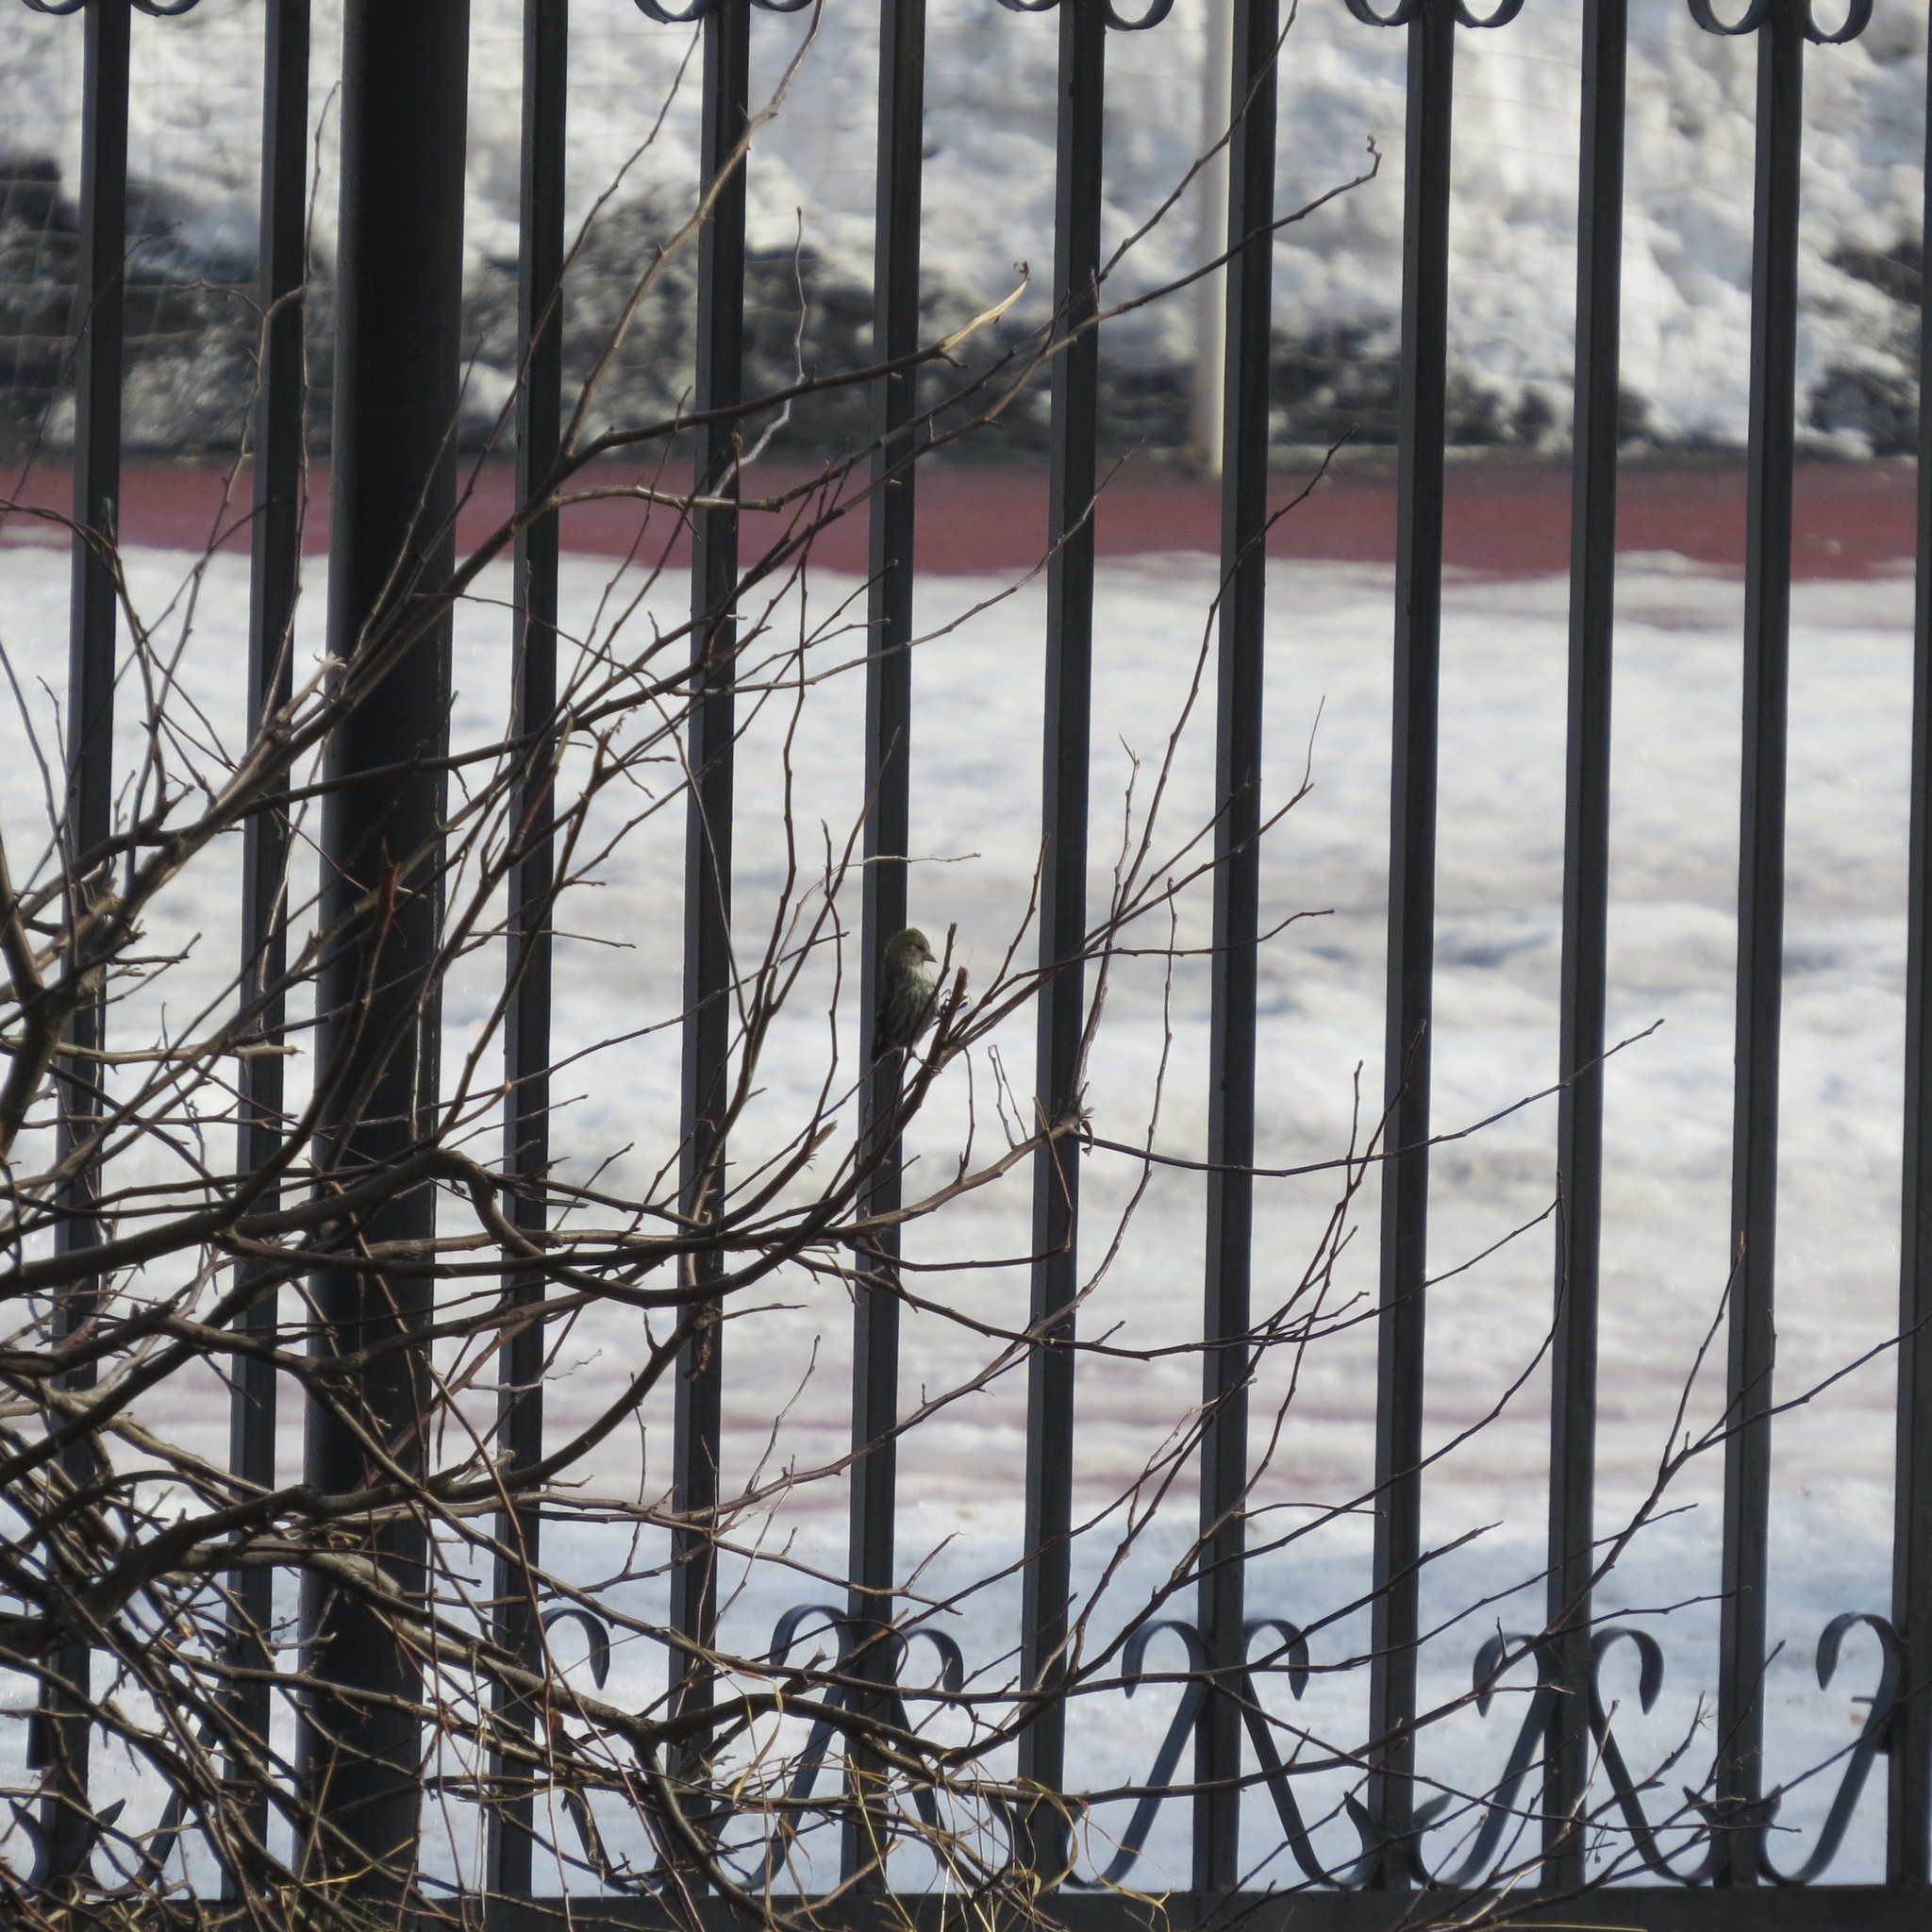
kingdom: Plantae
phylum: Tracheophyta
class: Liliopsida
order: Poales
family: Poaceae
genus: Chloris
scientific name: Chloris chloris
